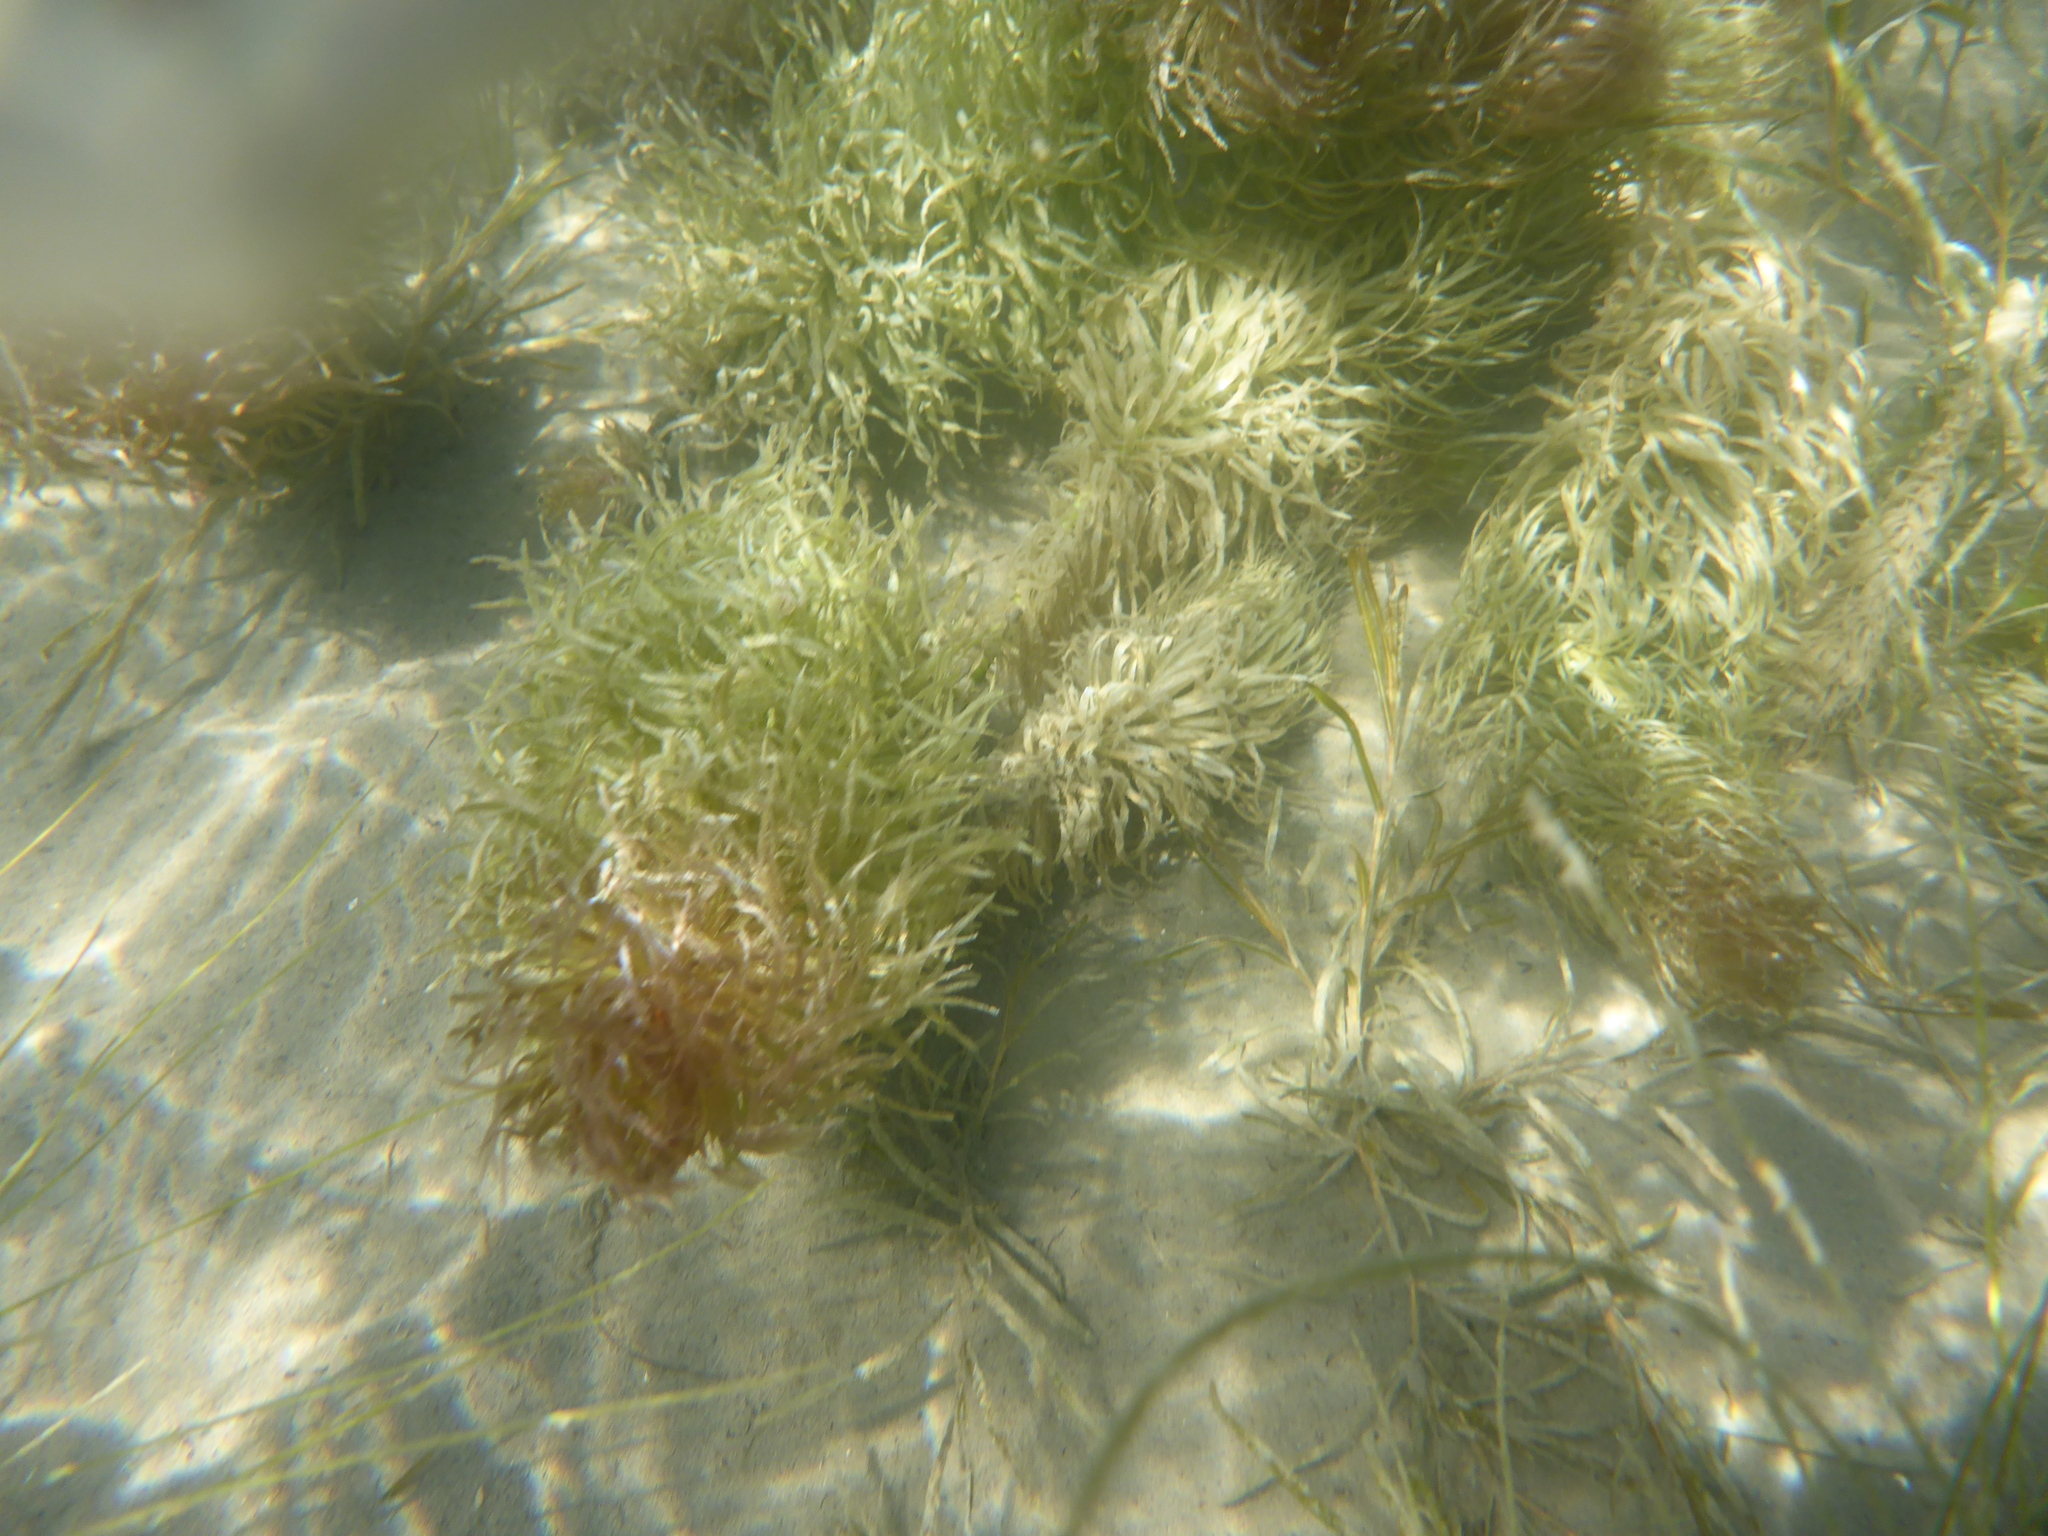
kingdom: Plantae
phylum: Tracheophyta
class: Magnoliopsida
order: Lamiales
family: Plantaginaceae
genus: Hippuris
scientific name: Hippuris vulgaris
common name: Mare's-tail
